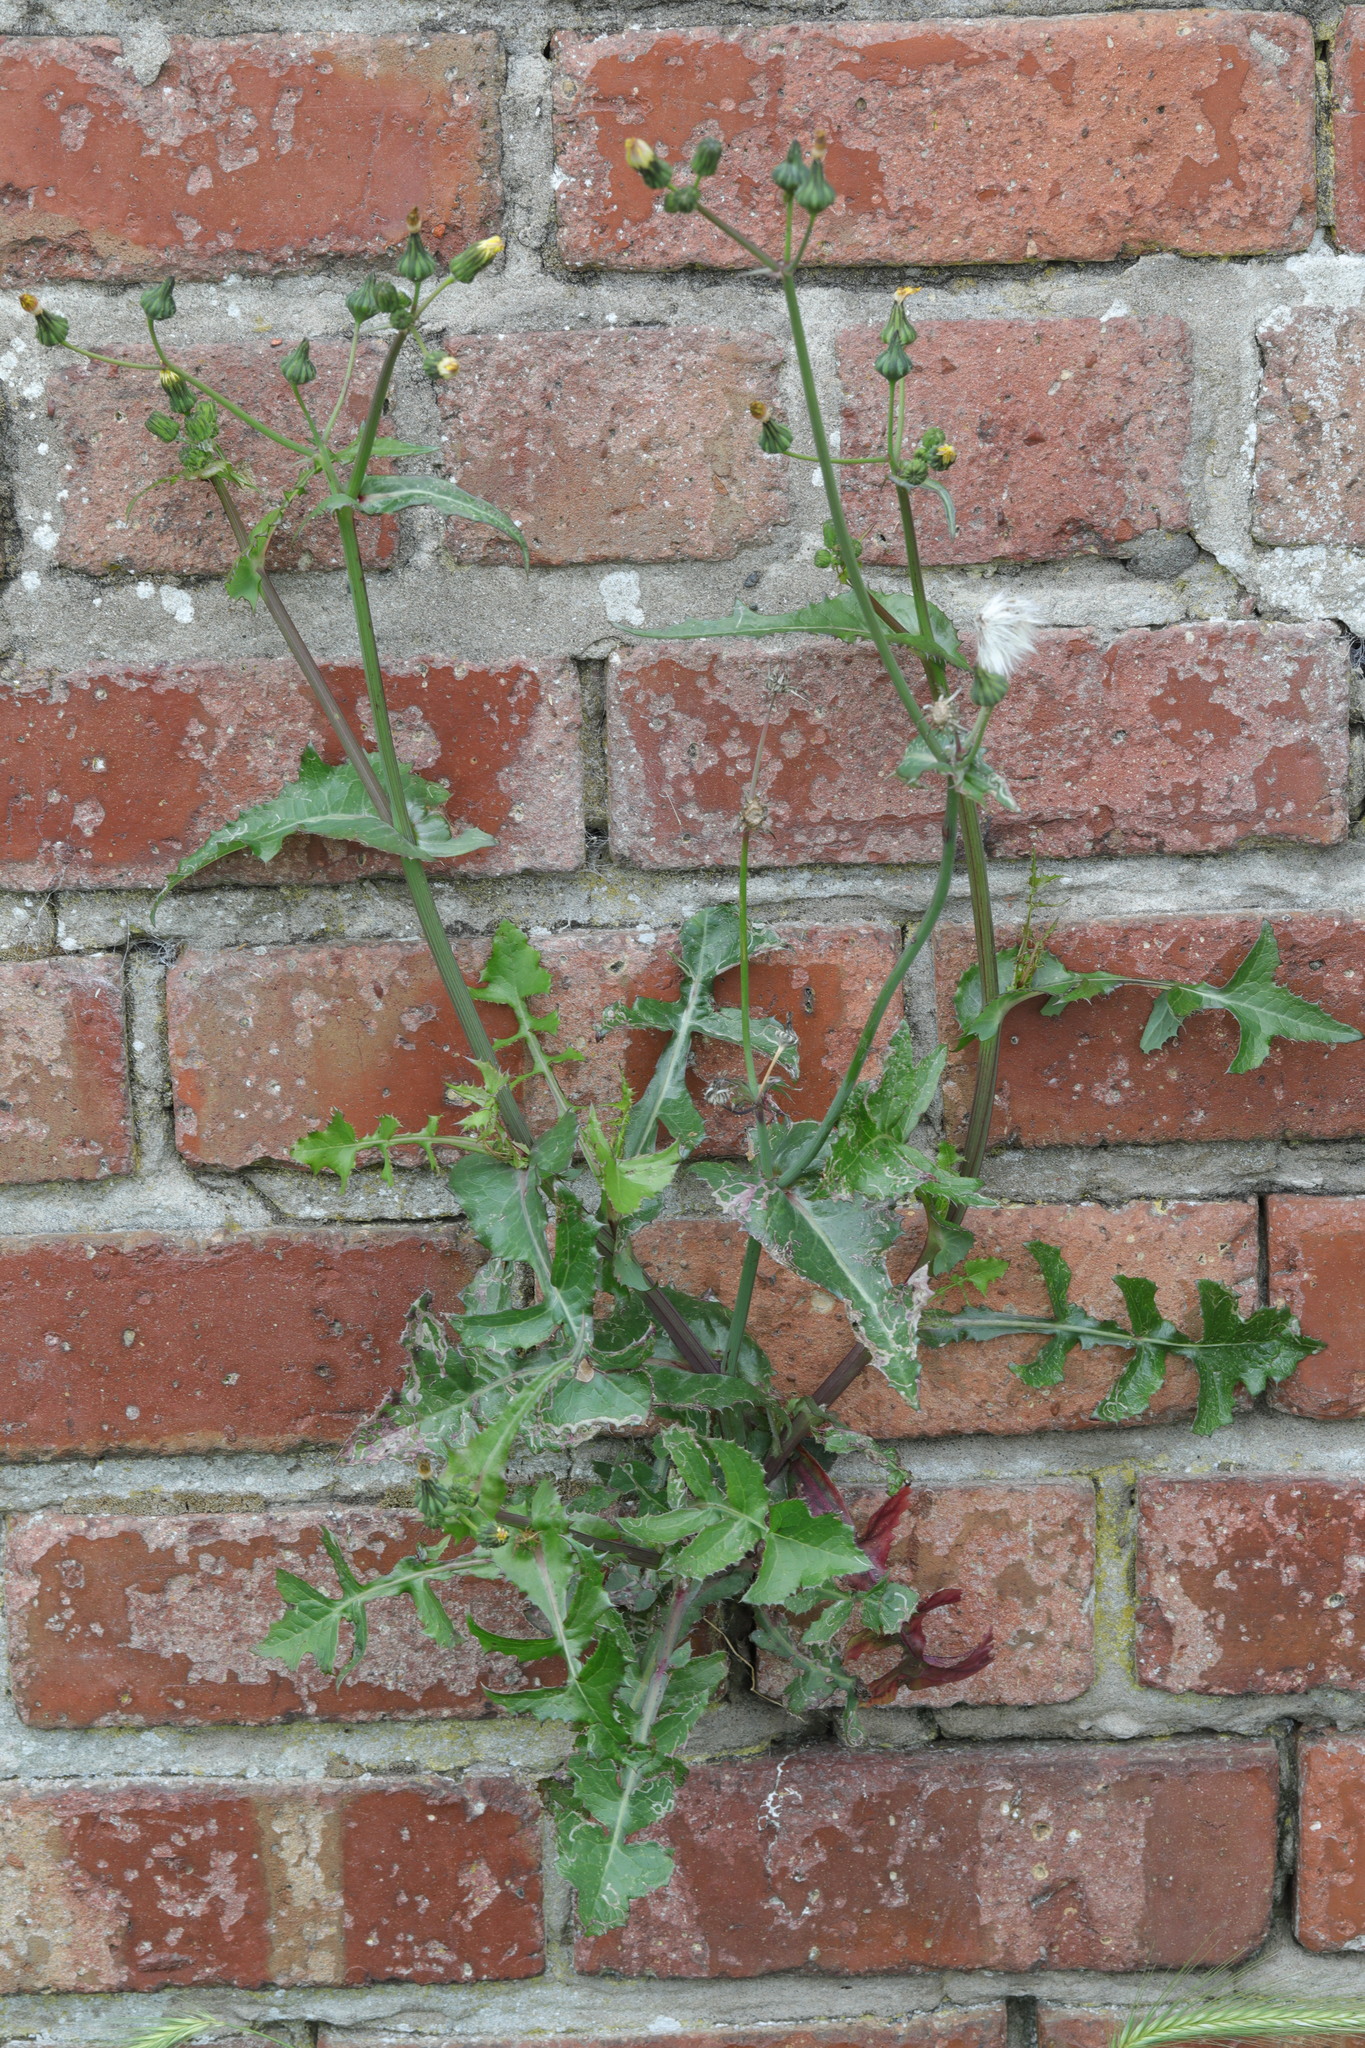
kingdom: Plantae
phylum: Tracheophyta
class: Magnoliopsida
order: Asterales
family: Asteraceae
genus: Sonchus
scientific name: Sonchus oleraceus
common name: Common sowthistle
